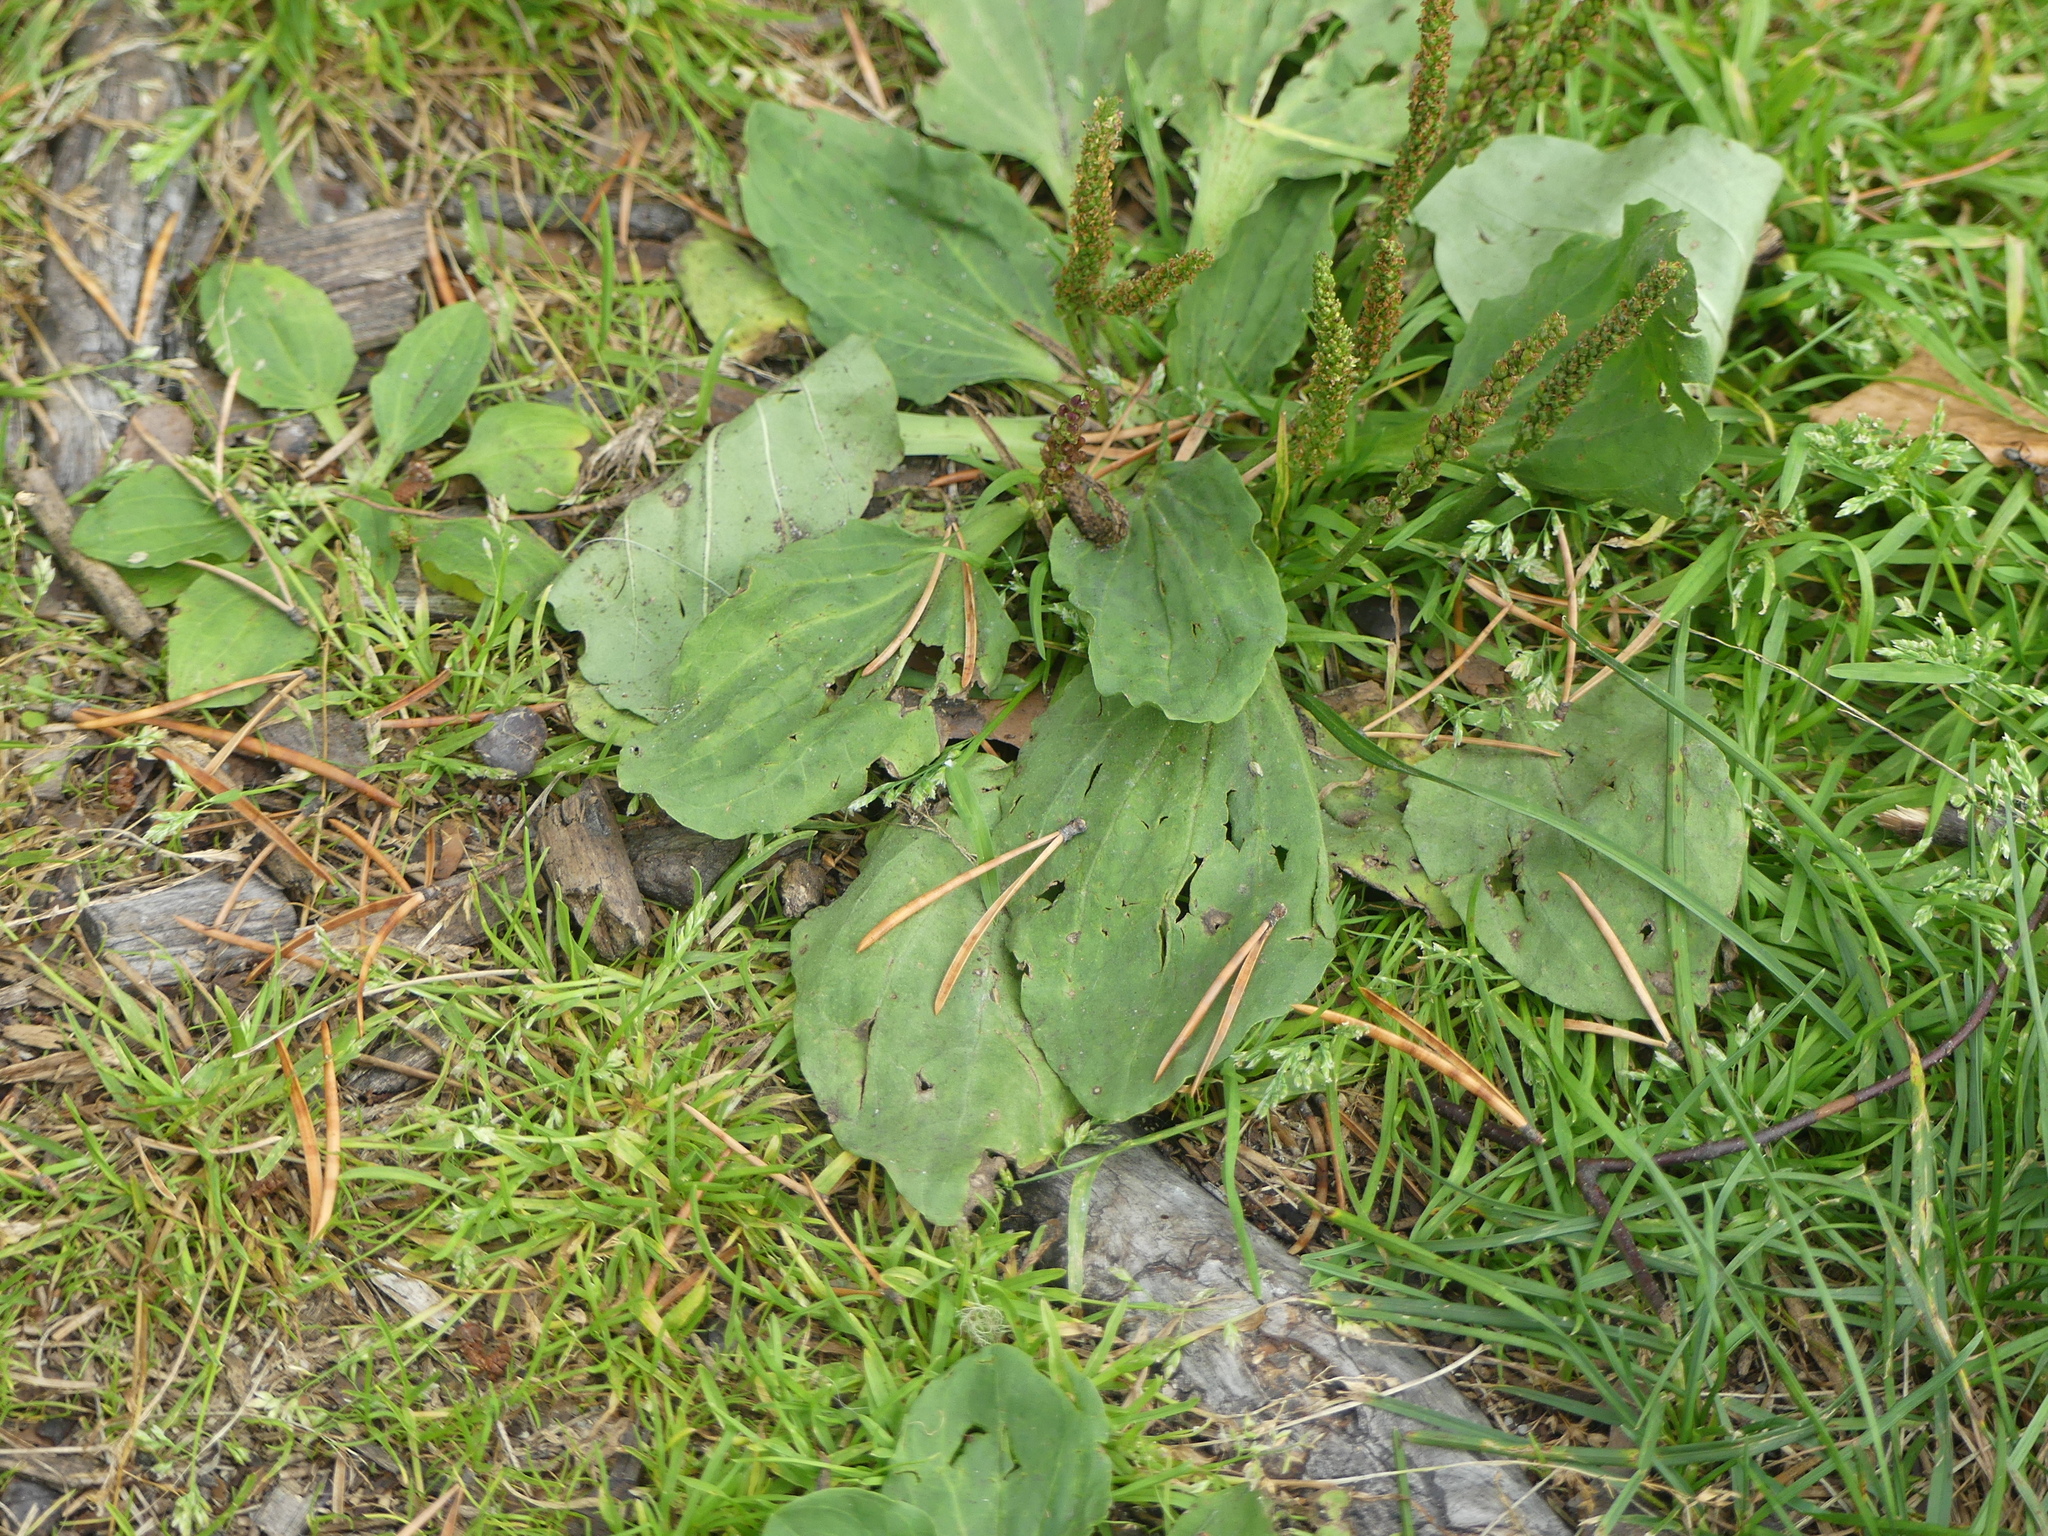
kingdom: Plantae
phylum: Tracheophyta
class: Magnoliopsida
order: Lamiales
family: Plantaginaceae
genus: Plantago
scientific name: Plantago major
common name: Common plantain
